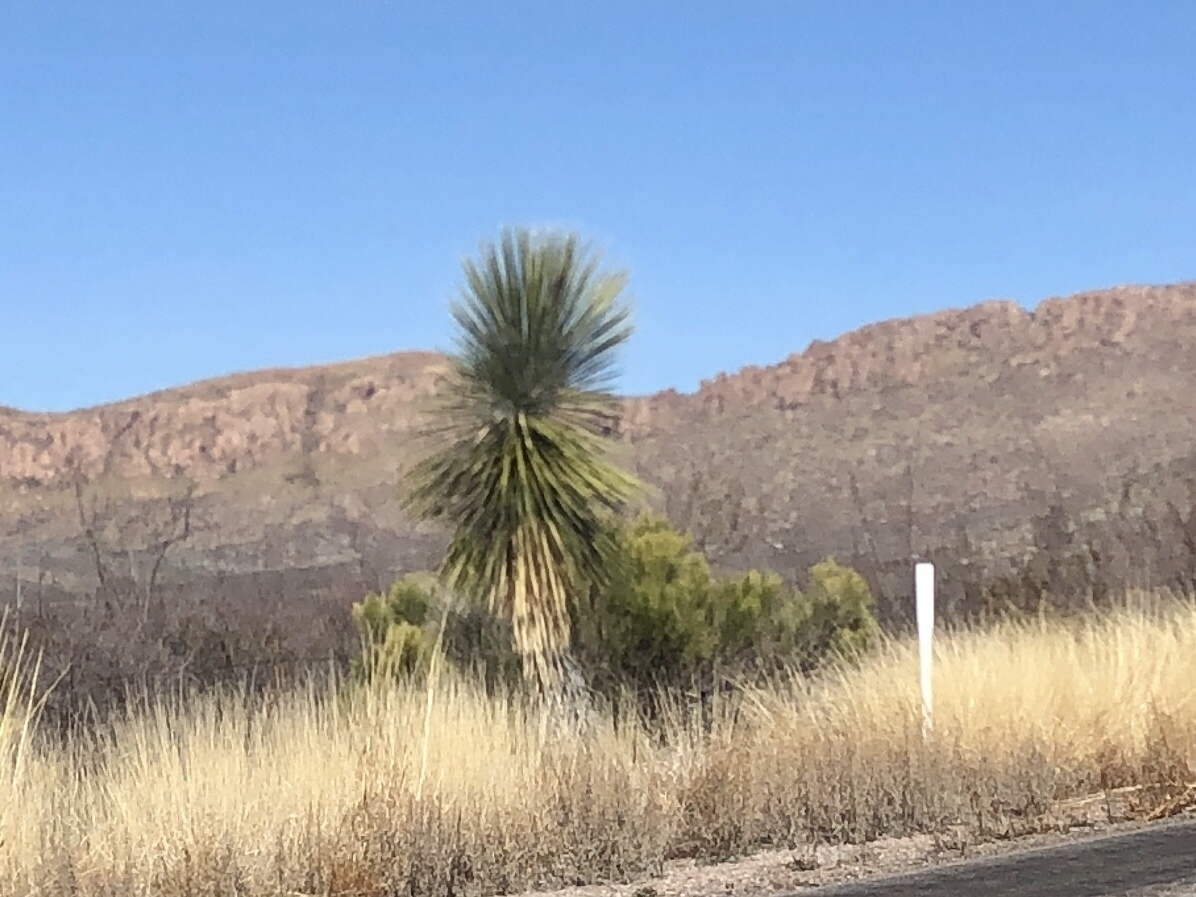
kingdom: Plantae
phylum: Tracheophyta
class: Liliopsida
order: Asparagales
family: Asparagaceae
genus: Yucca
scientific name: Yucca elata
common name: Palmella
